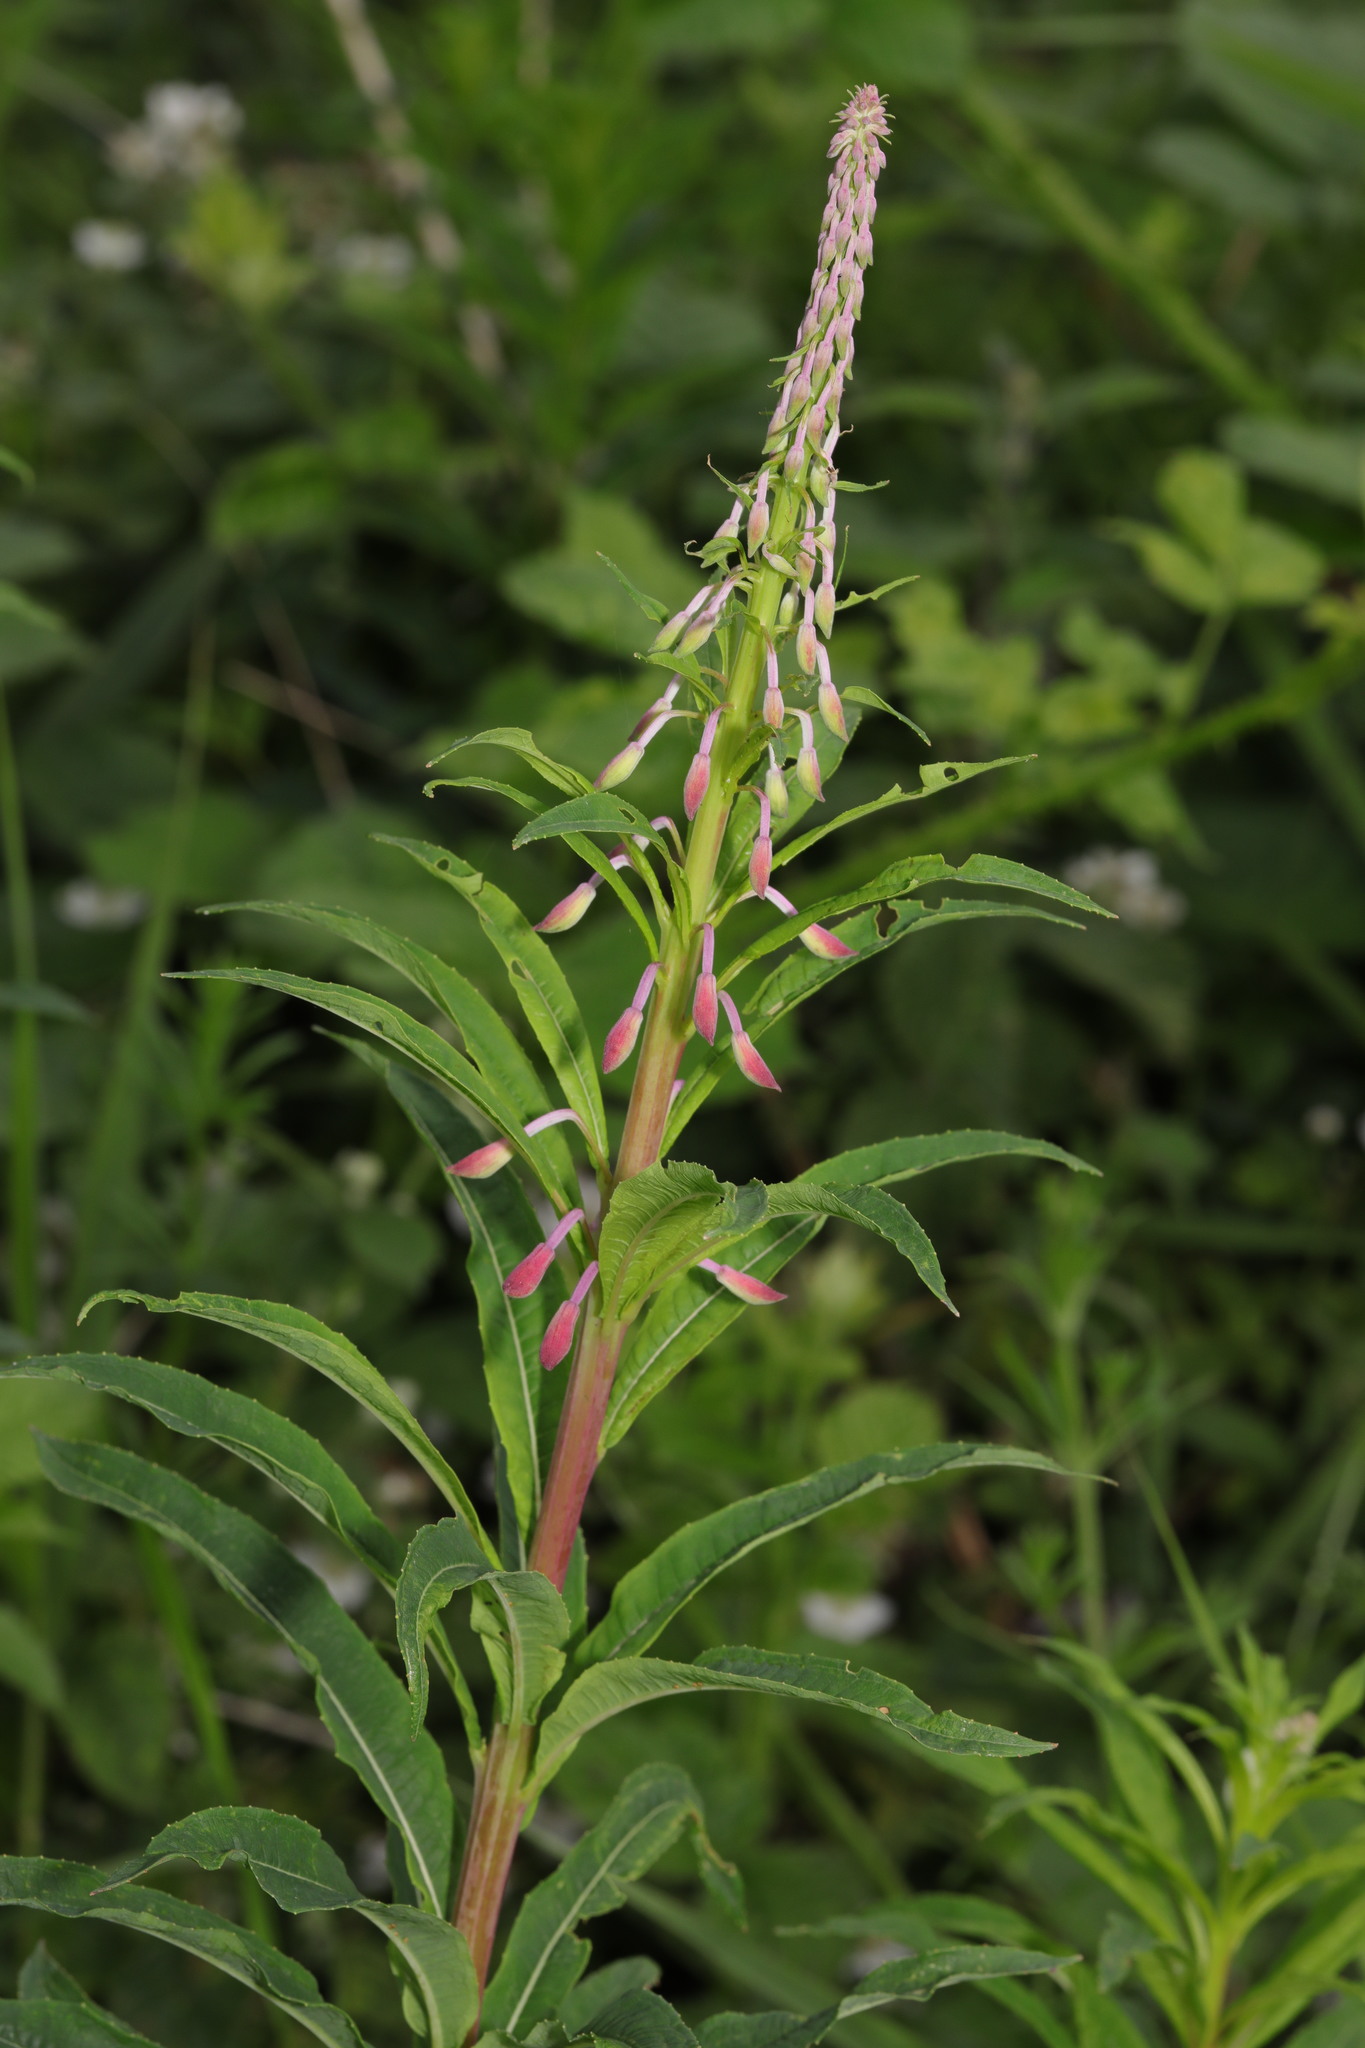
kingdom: Plantae
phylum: Tracheophyta
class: Magnoliopsida
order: Myrtales
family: Onagraceae
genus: Chamaenerion
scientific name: Chamaenerion angustifolium
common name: Fireweed
